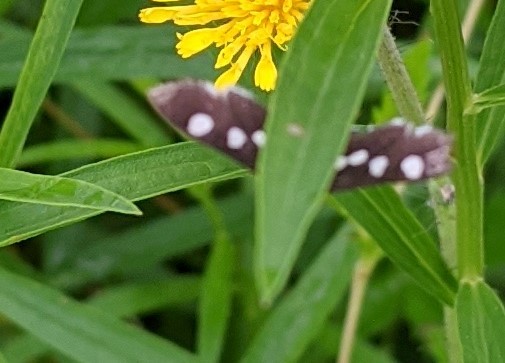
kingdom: Animalia
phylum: Arthropoda
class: Insecta
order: Lepidoptera
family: Crambidae
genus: Desmia
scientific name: Desmia
